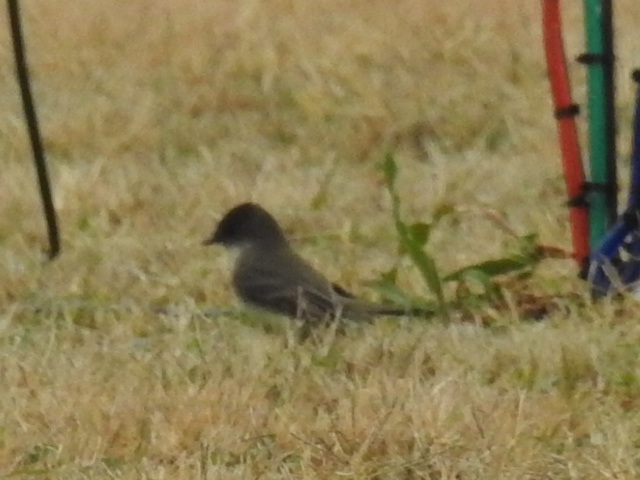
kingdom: Animalia
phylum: Chordata
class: Aves
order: Passeriformes
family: Tyrannidae
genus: Sayornis
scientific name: Sayornis phoebe
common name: Eastern phoebe
